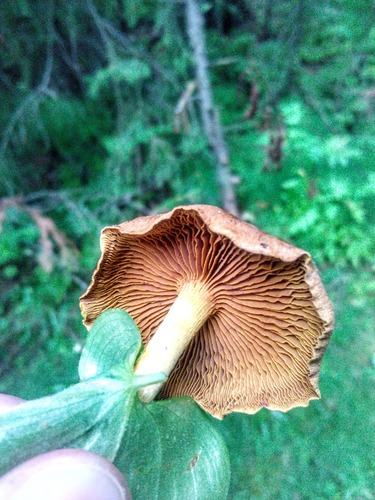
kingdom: Fungi
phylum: Basidiomycota
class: Agaricomycetes
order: Agaricales
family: Cortinariaceae
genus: Cortinarius
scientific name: Cortinarius cinnamomeus
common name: Cinnamon webcap
